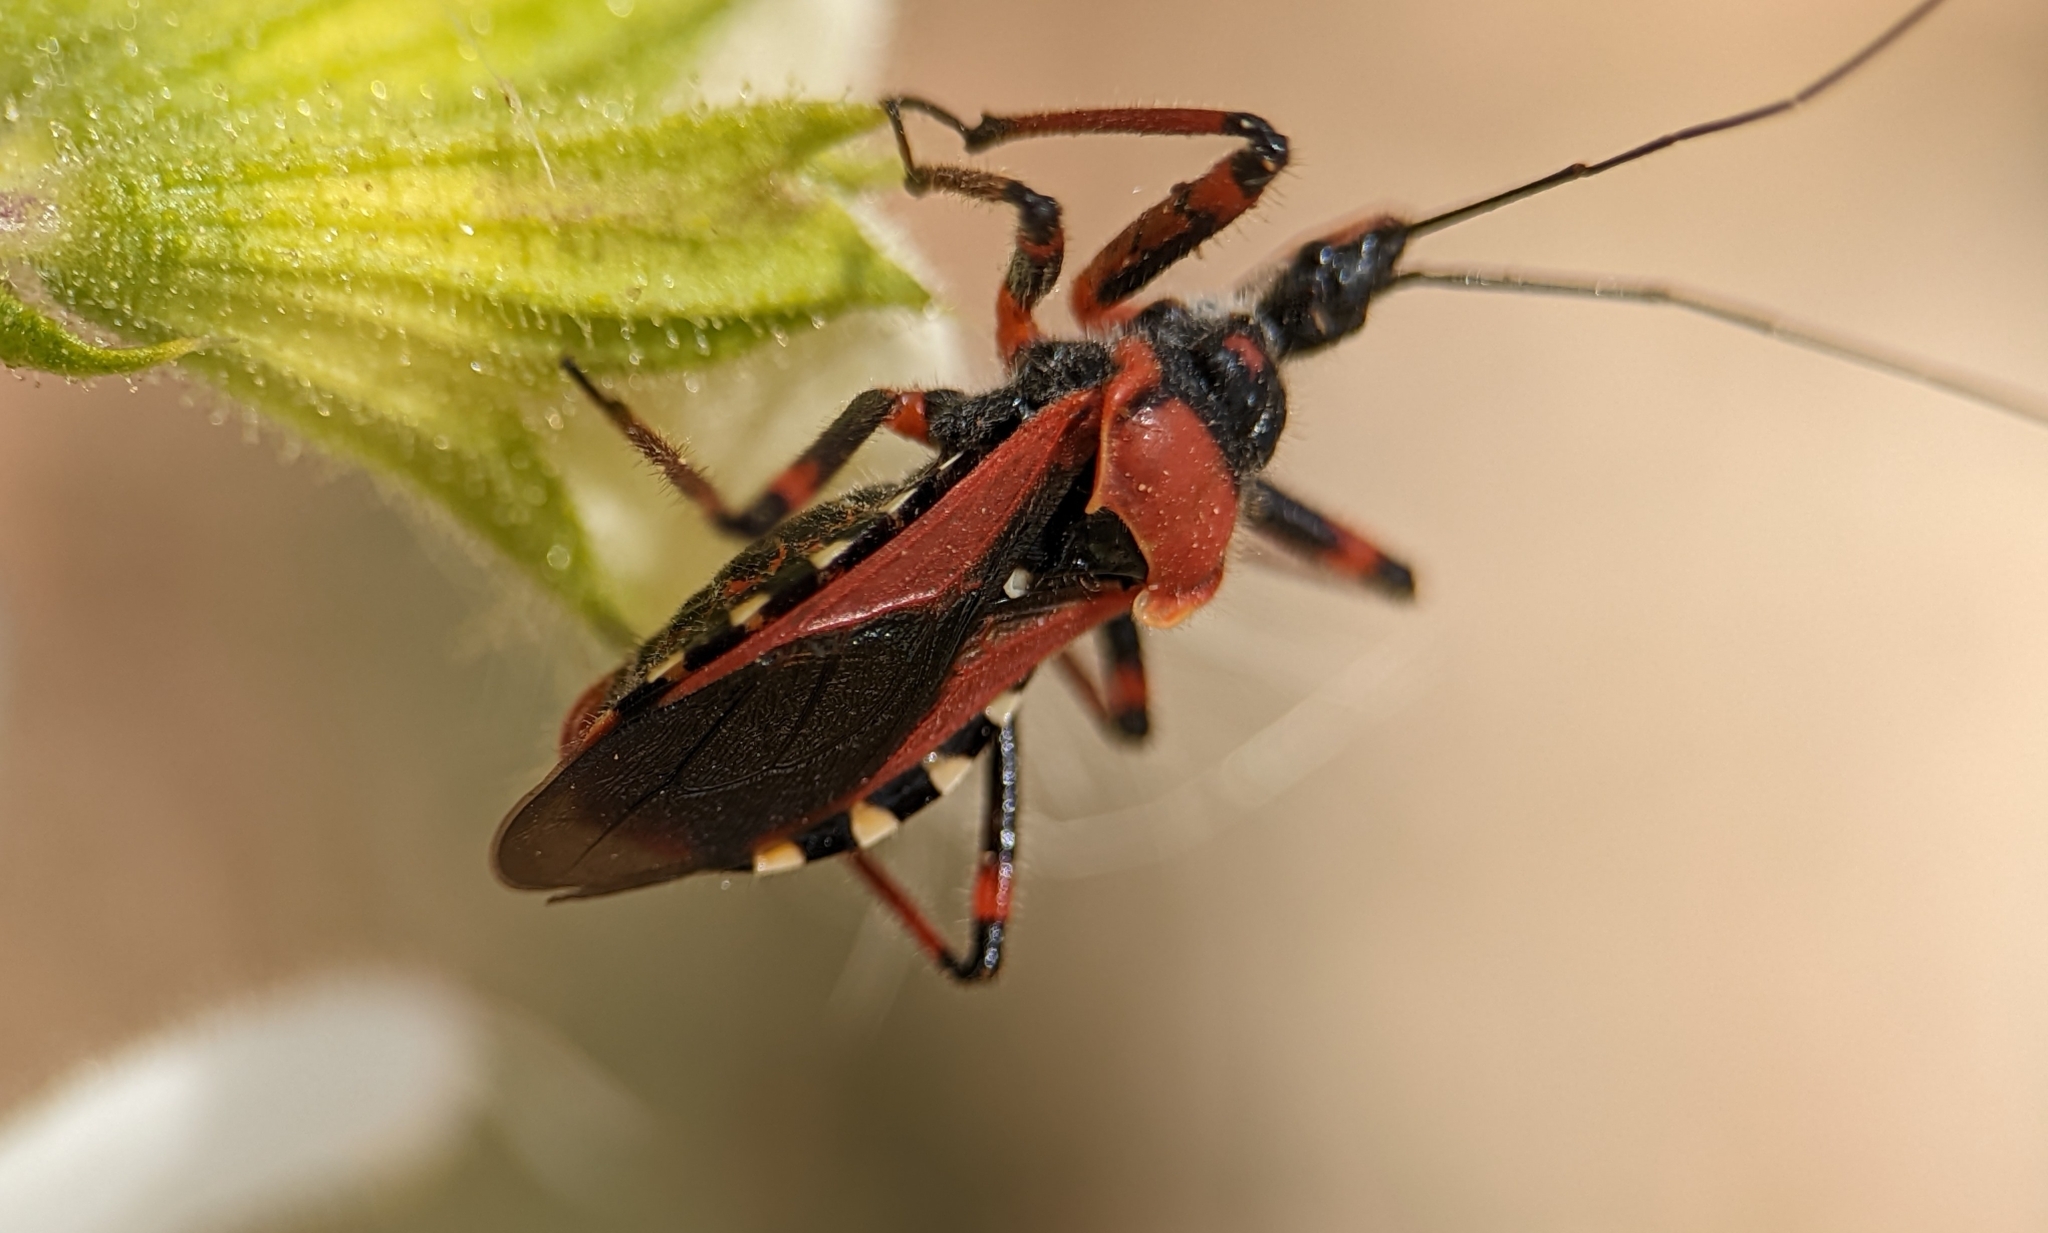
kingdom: Animalia
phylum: Arthropoda
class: Insecta
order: Hemiptera
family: Reduviidae
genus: Rhynocoris
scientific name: Rhynocoris iracundus
